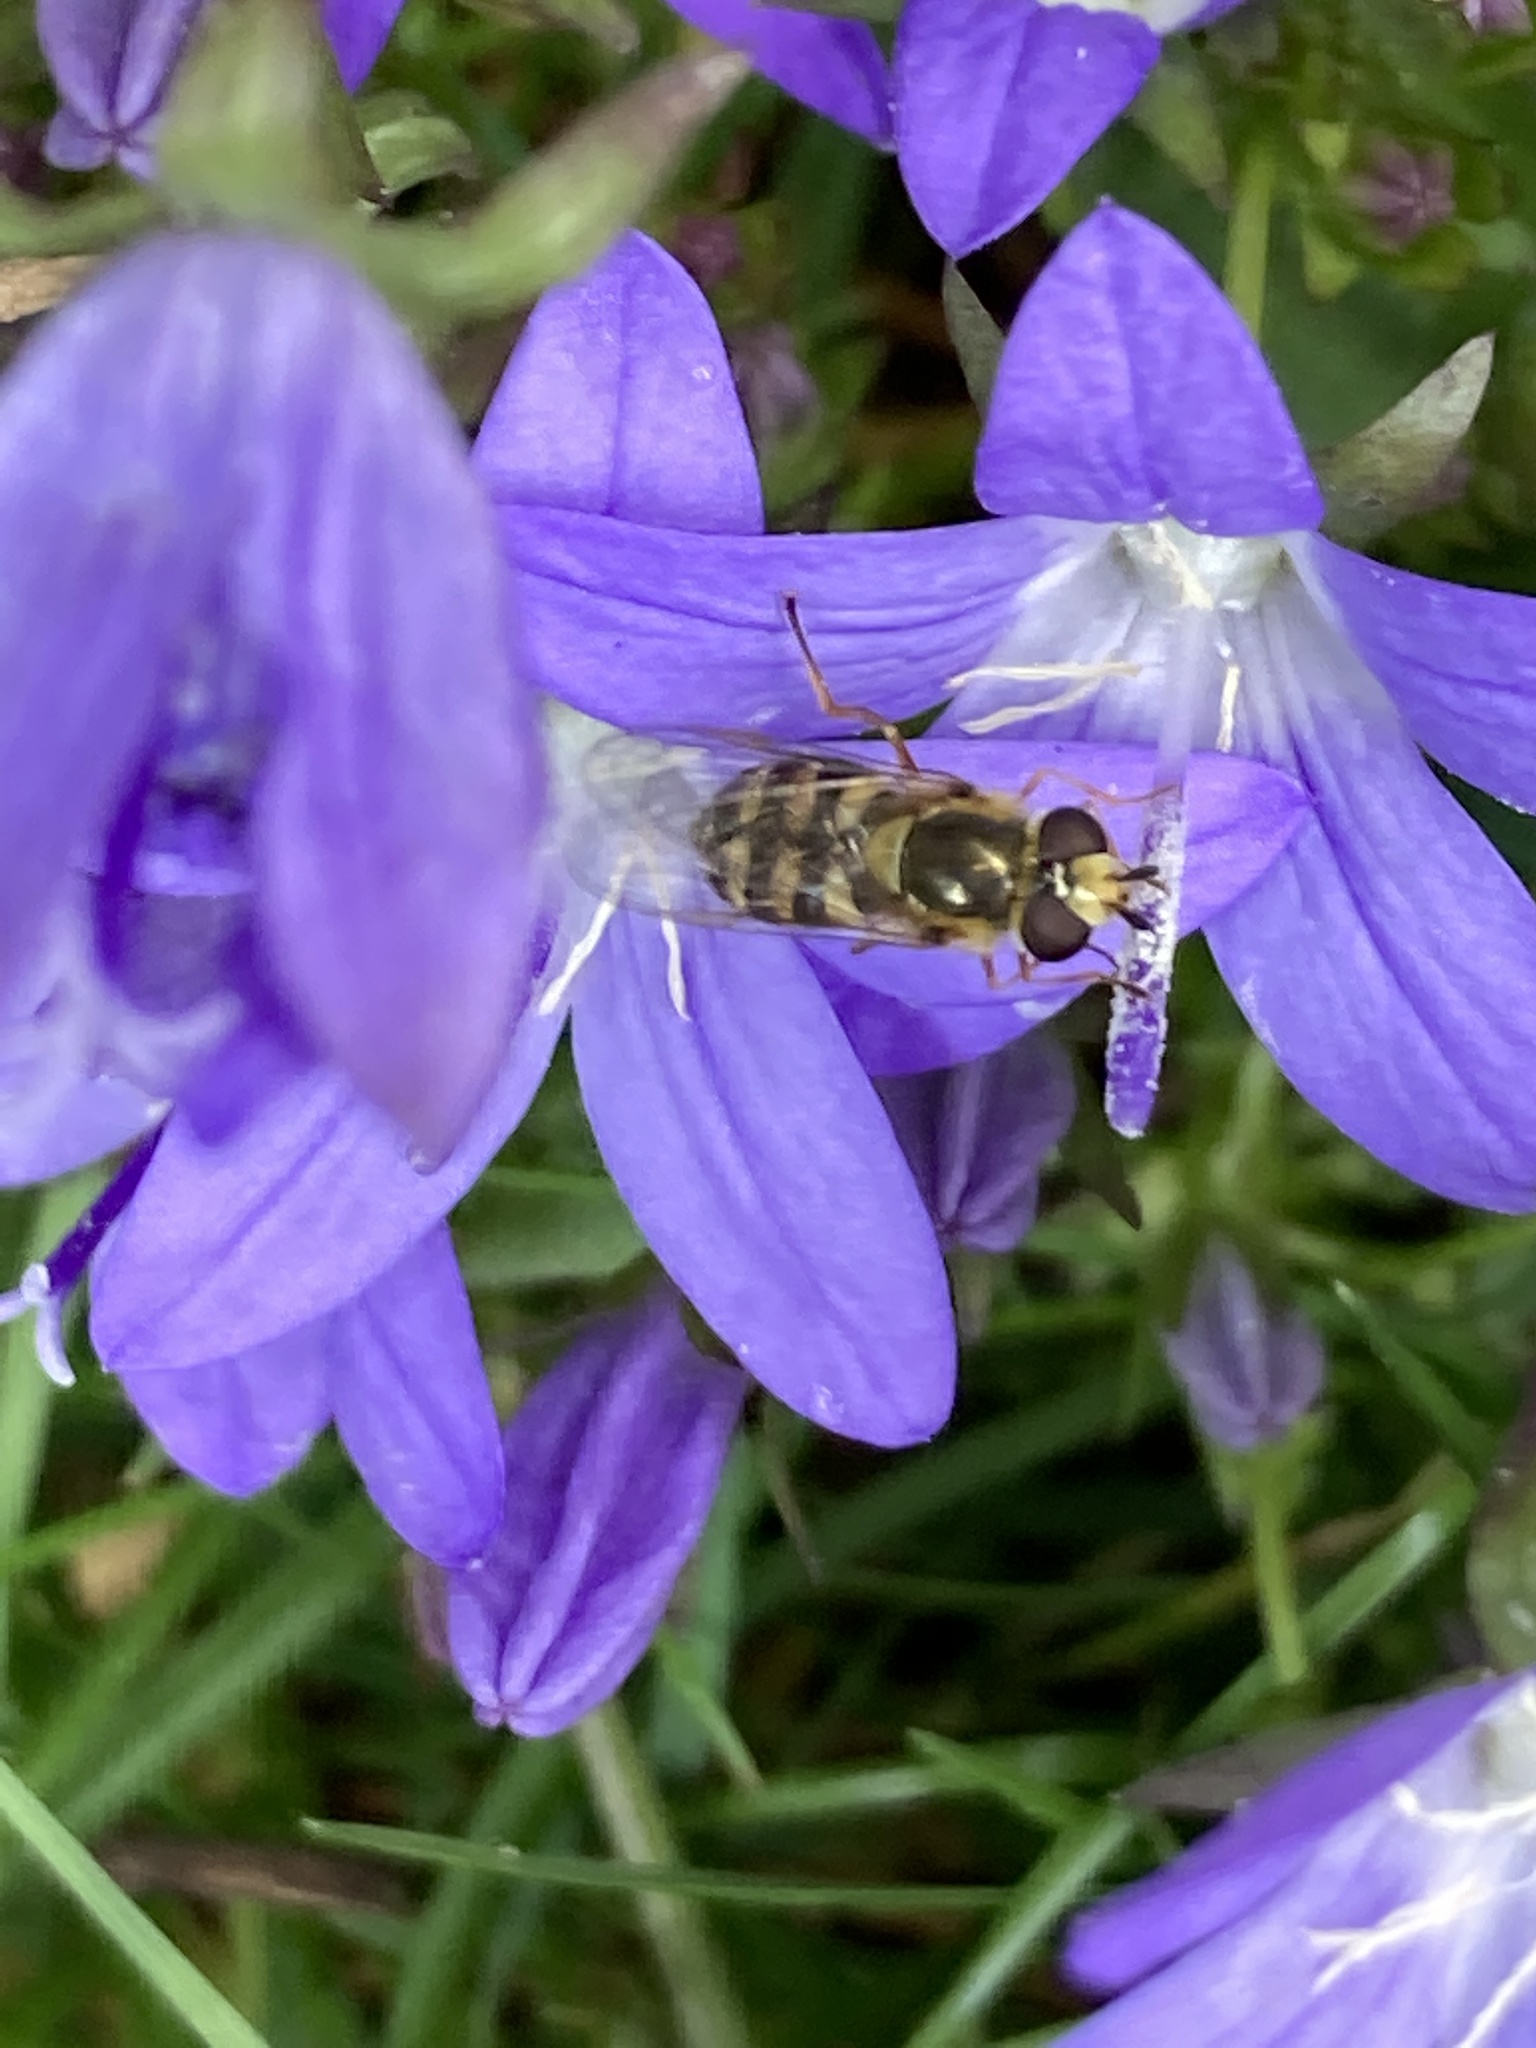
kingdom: Animalia
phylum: Arthropoda
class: Insecta
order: Diptera
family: Syrphidae
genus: Eupeodes
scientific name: Eupeodes corollae
